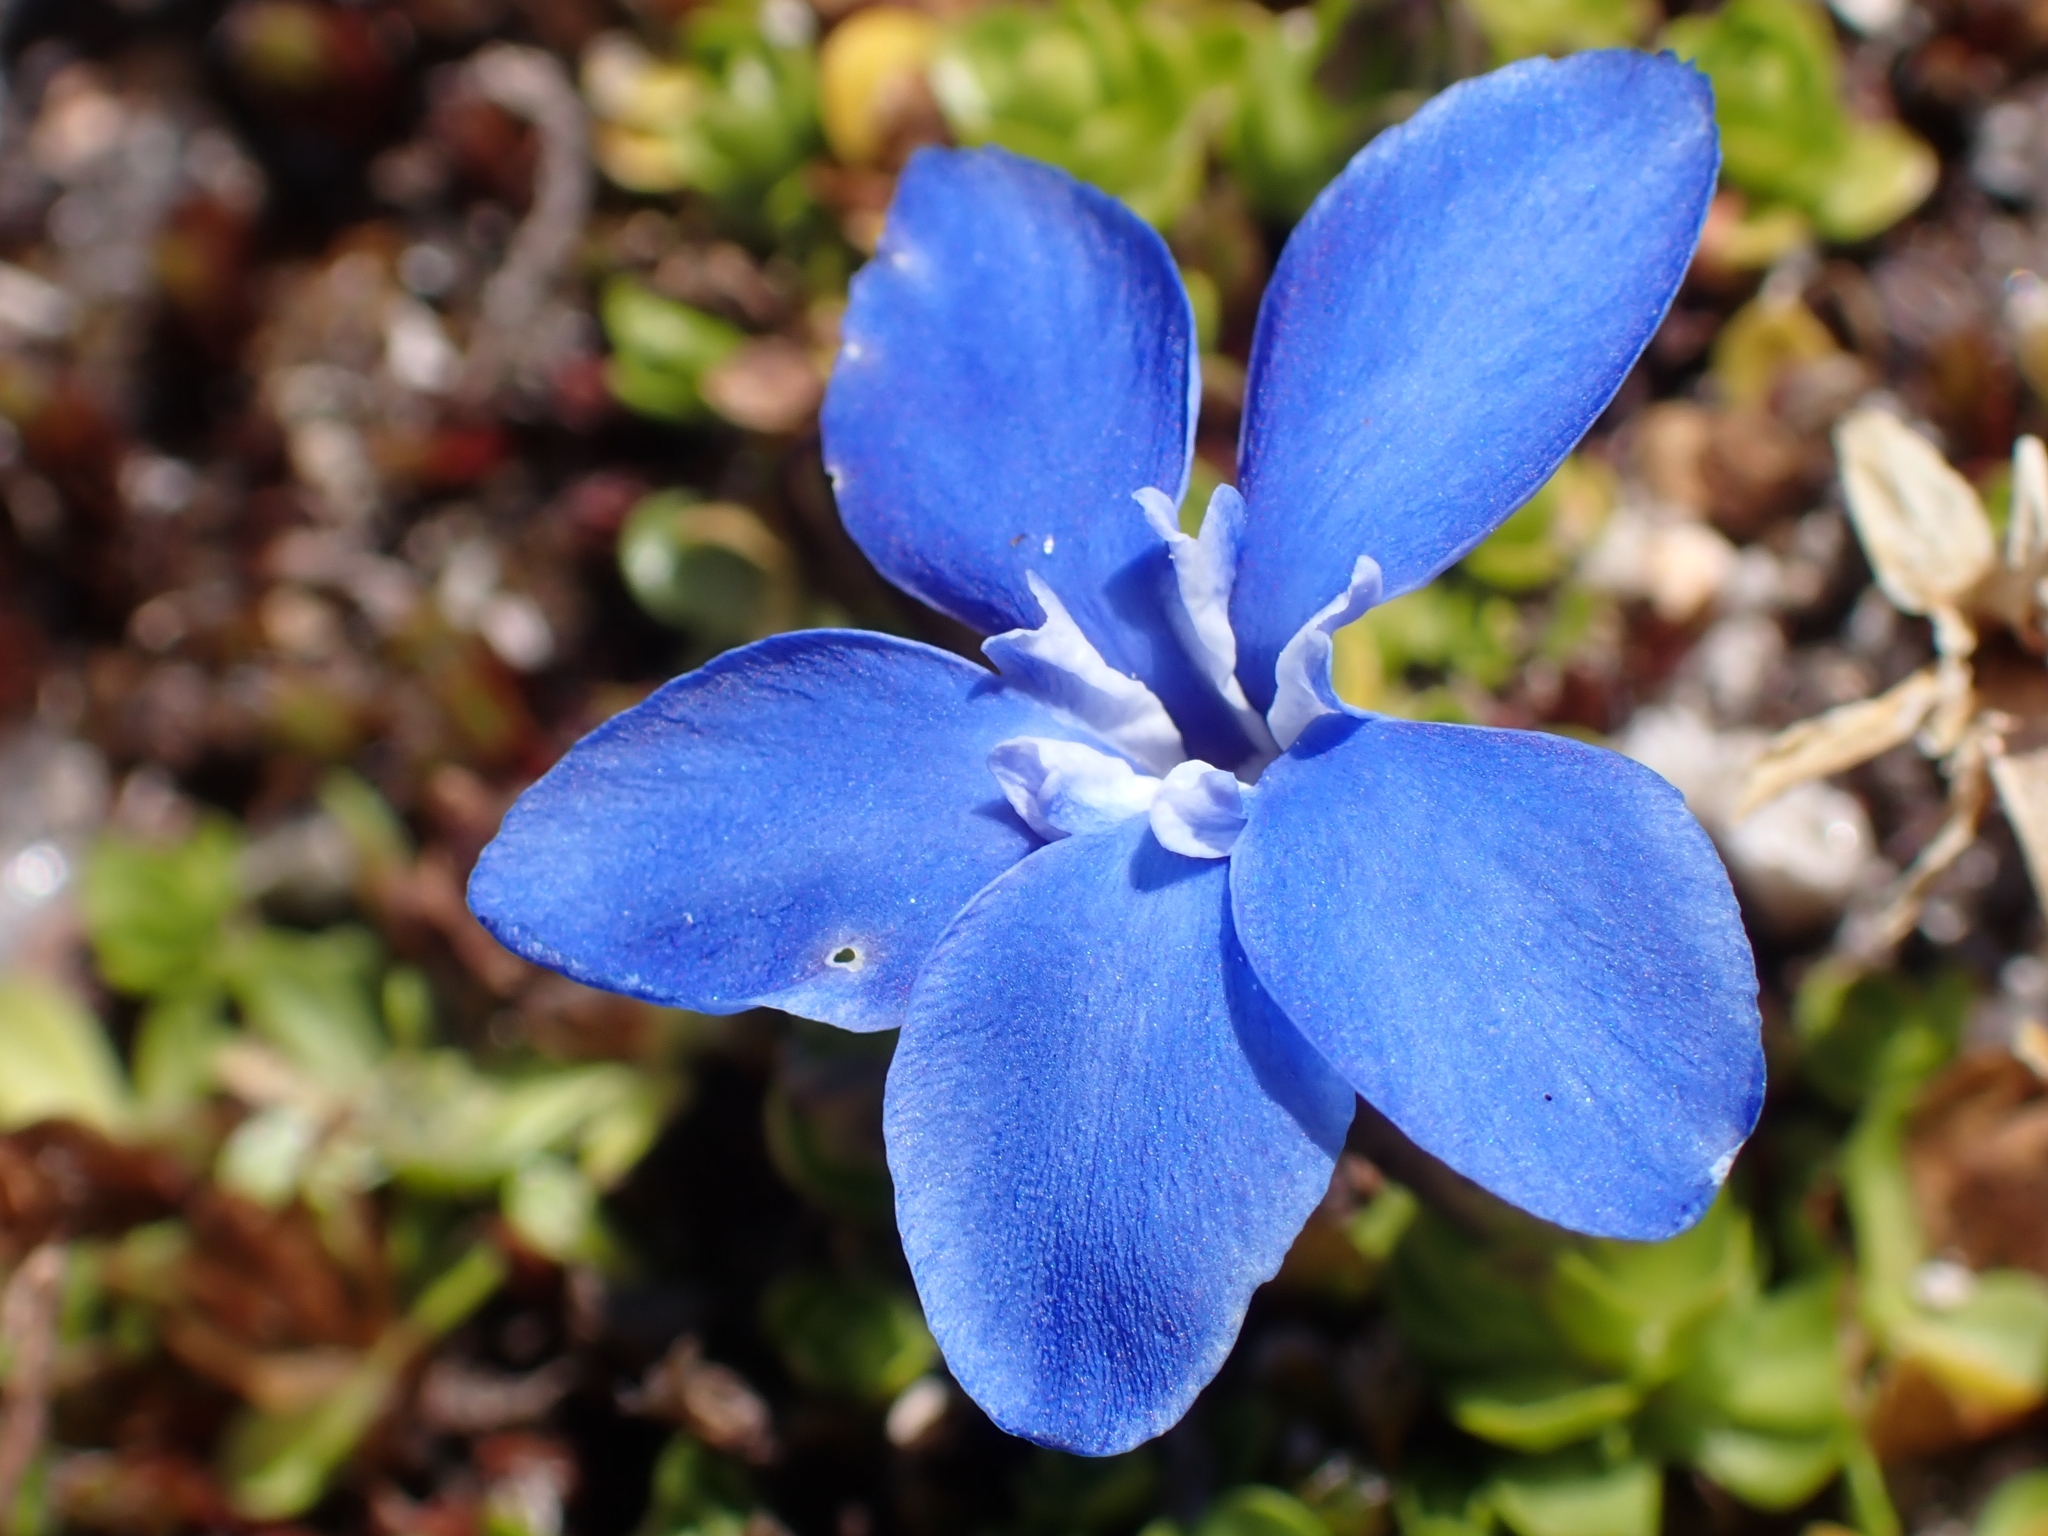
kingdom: Plantae
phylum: Tracheophyta
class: Magnoliopsida
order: Gentianales
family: Gentianaceae
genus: Gentiana
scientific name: Gentiana bavarica
